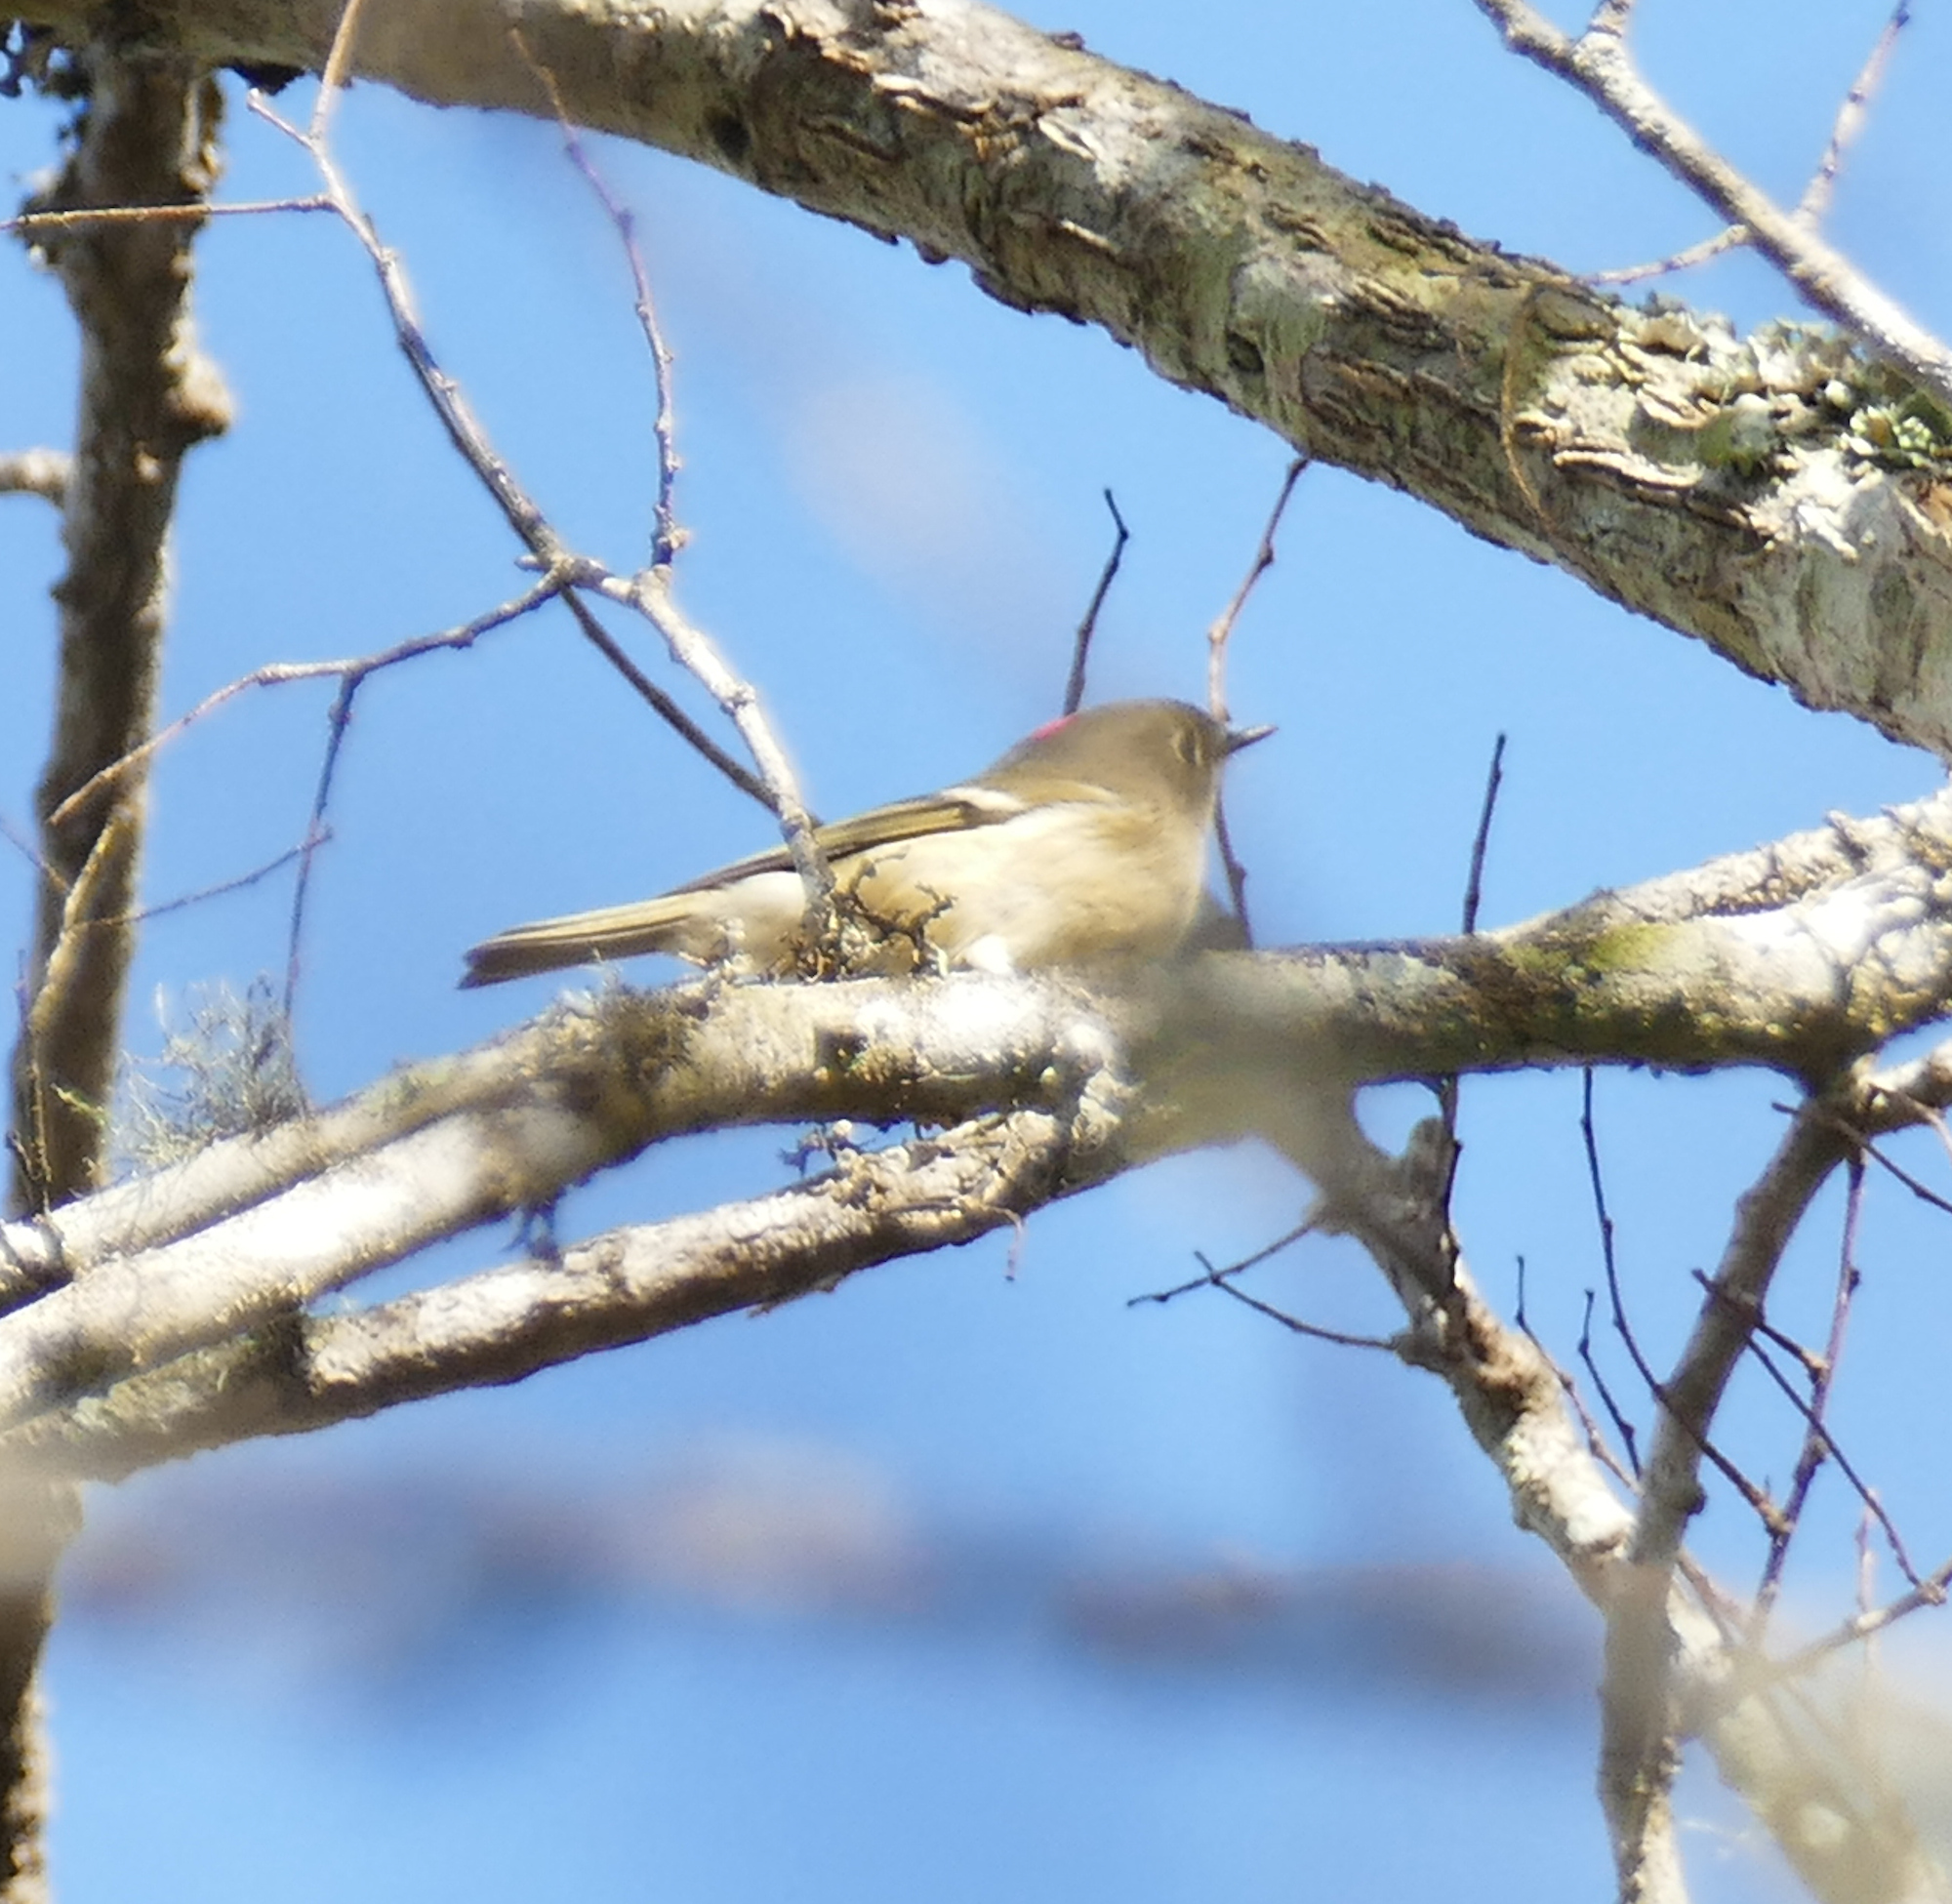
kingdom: Animalia
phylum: Chordata
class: Aves
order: Passeriformes
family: Regulidae
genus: Regulus
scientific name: Regulus calendula
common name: Ruby-crowned kinglet
